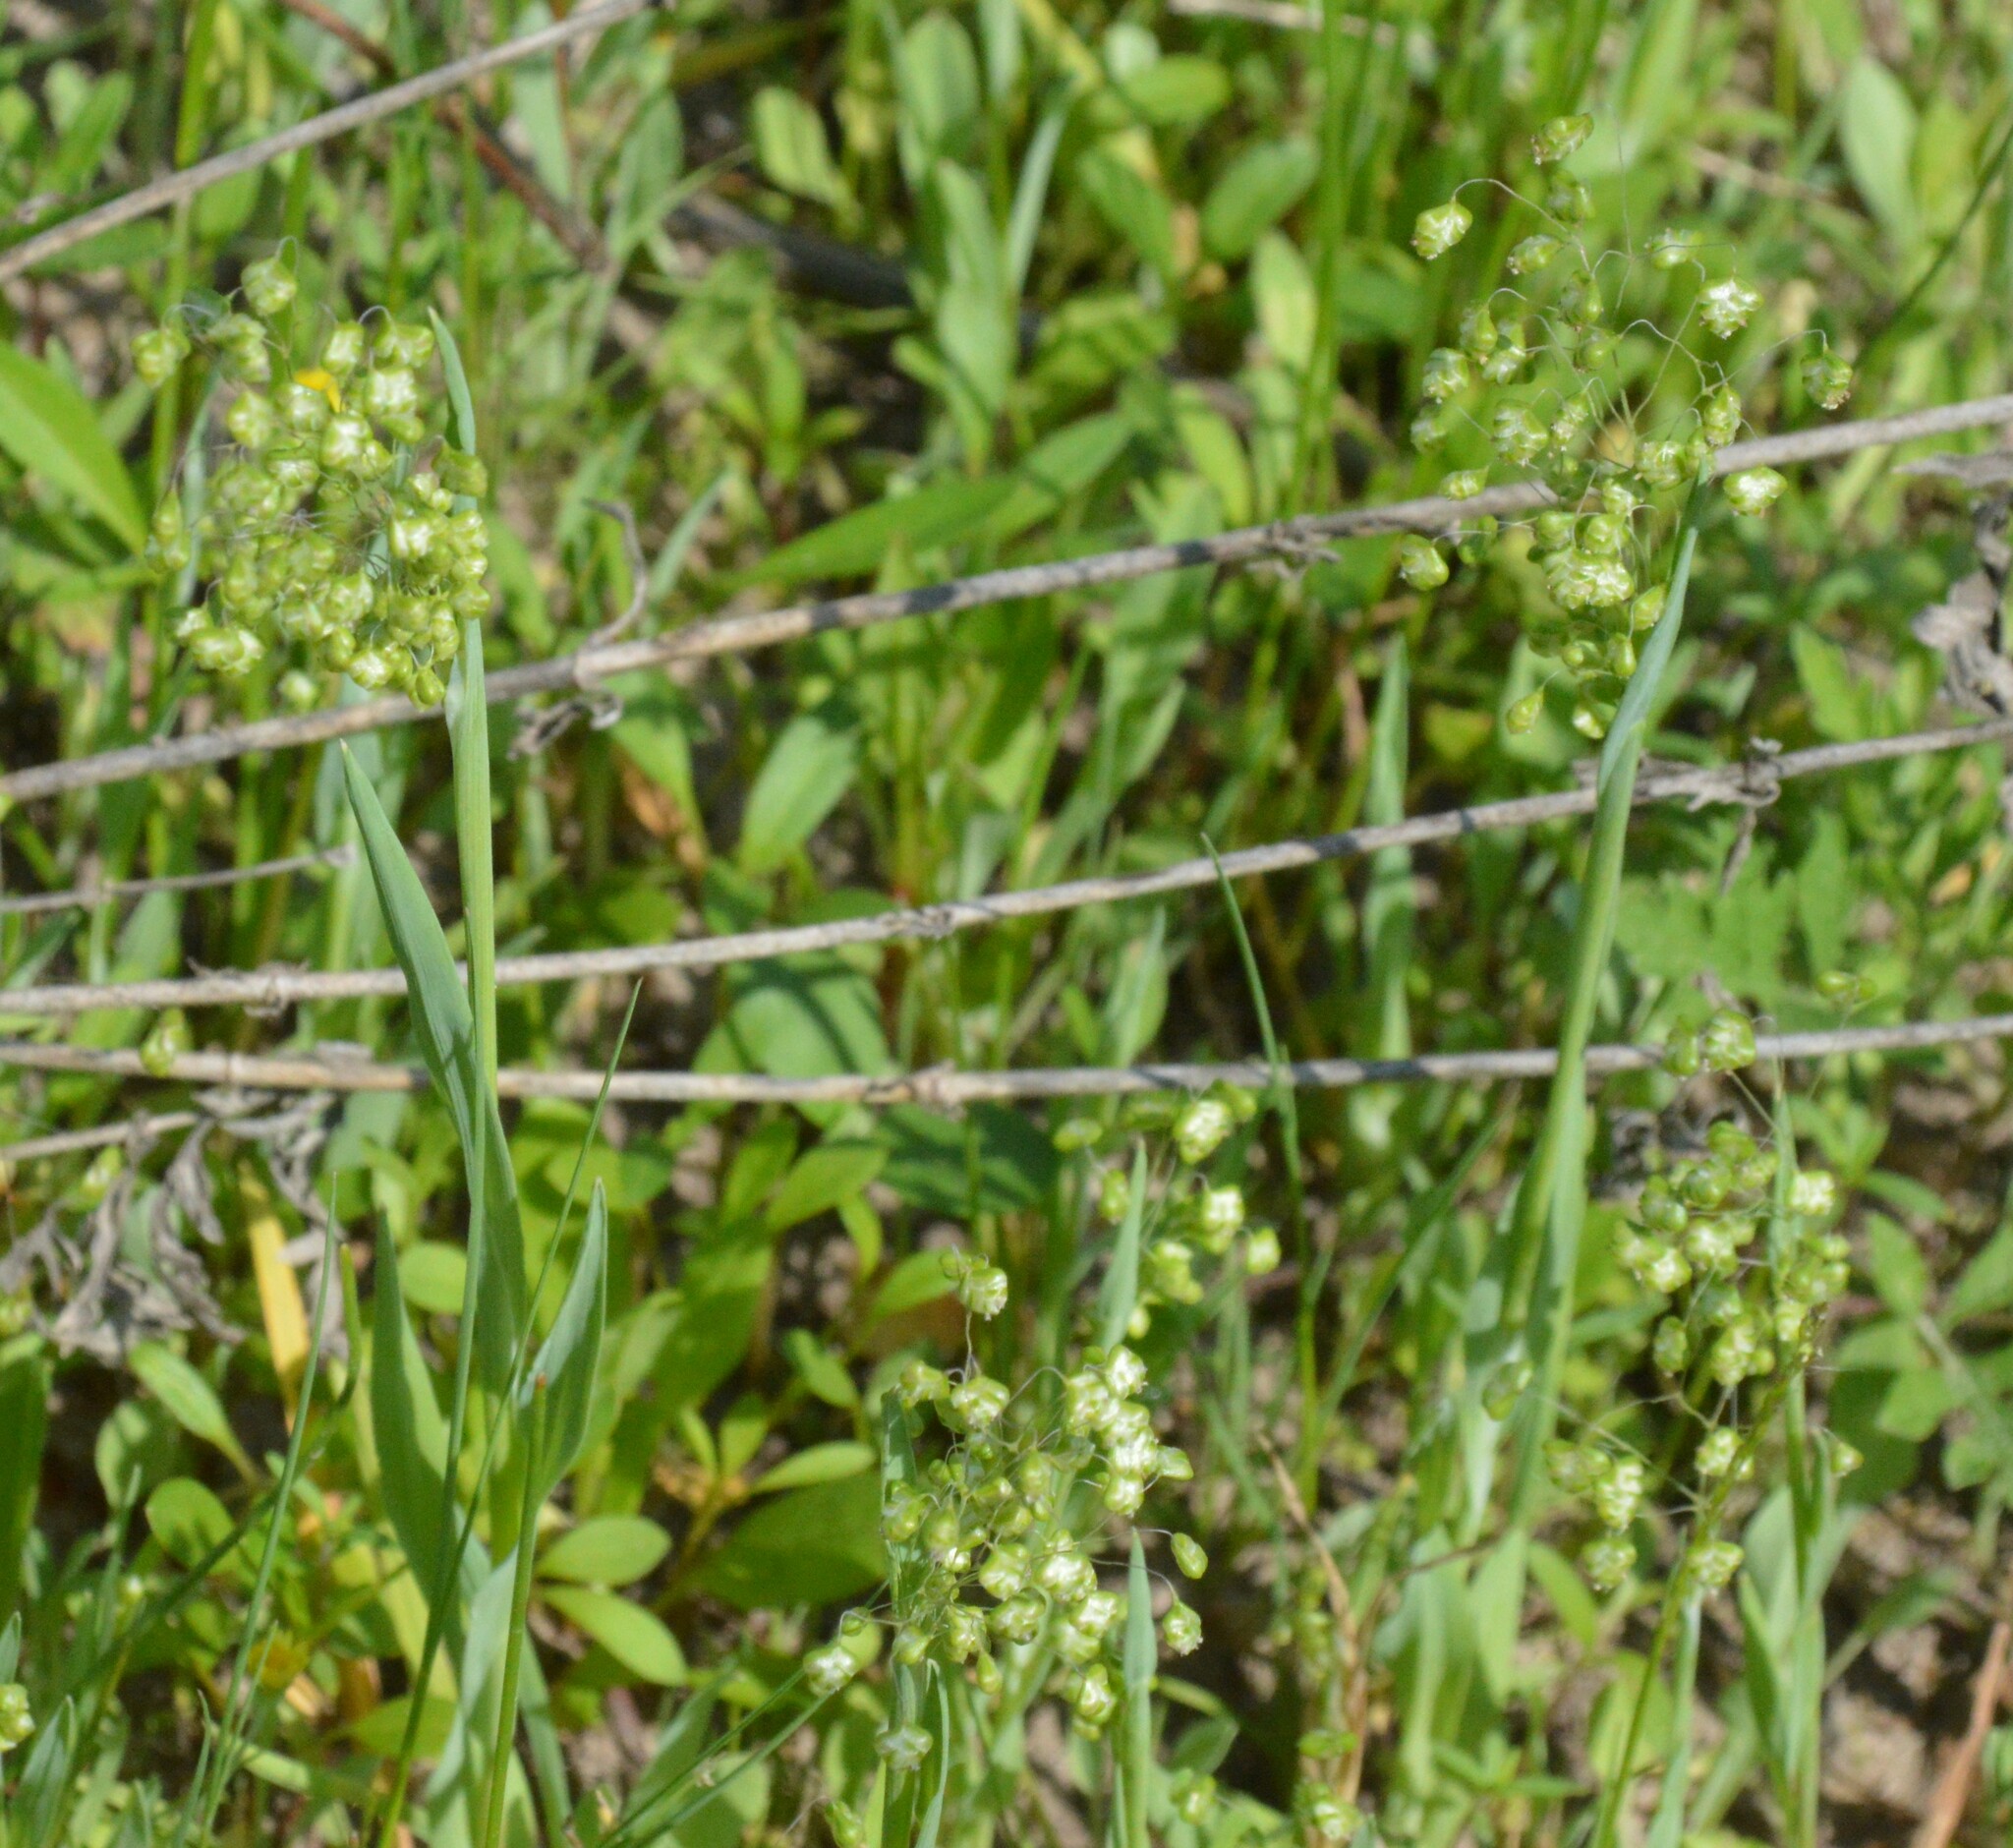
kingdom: Plantae
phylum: Tracheophyta
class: Liliopsida
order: Poales
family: Poaceae
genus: Briza
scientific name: Briza minor
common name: Lesser quaking-grass
